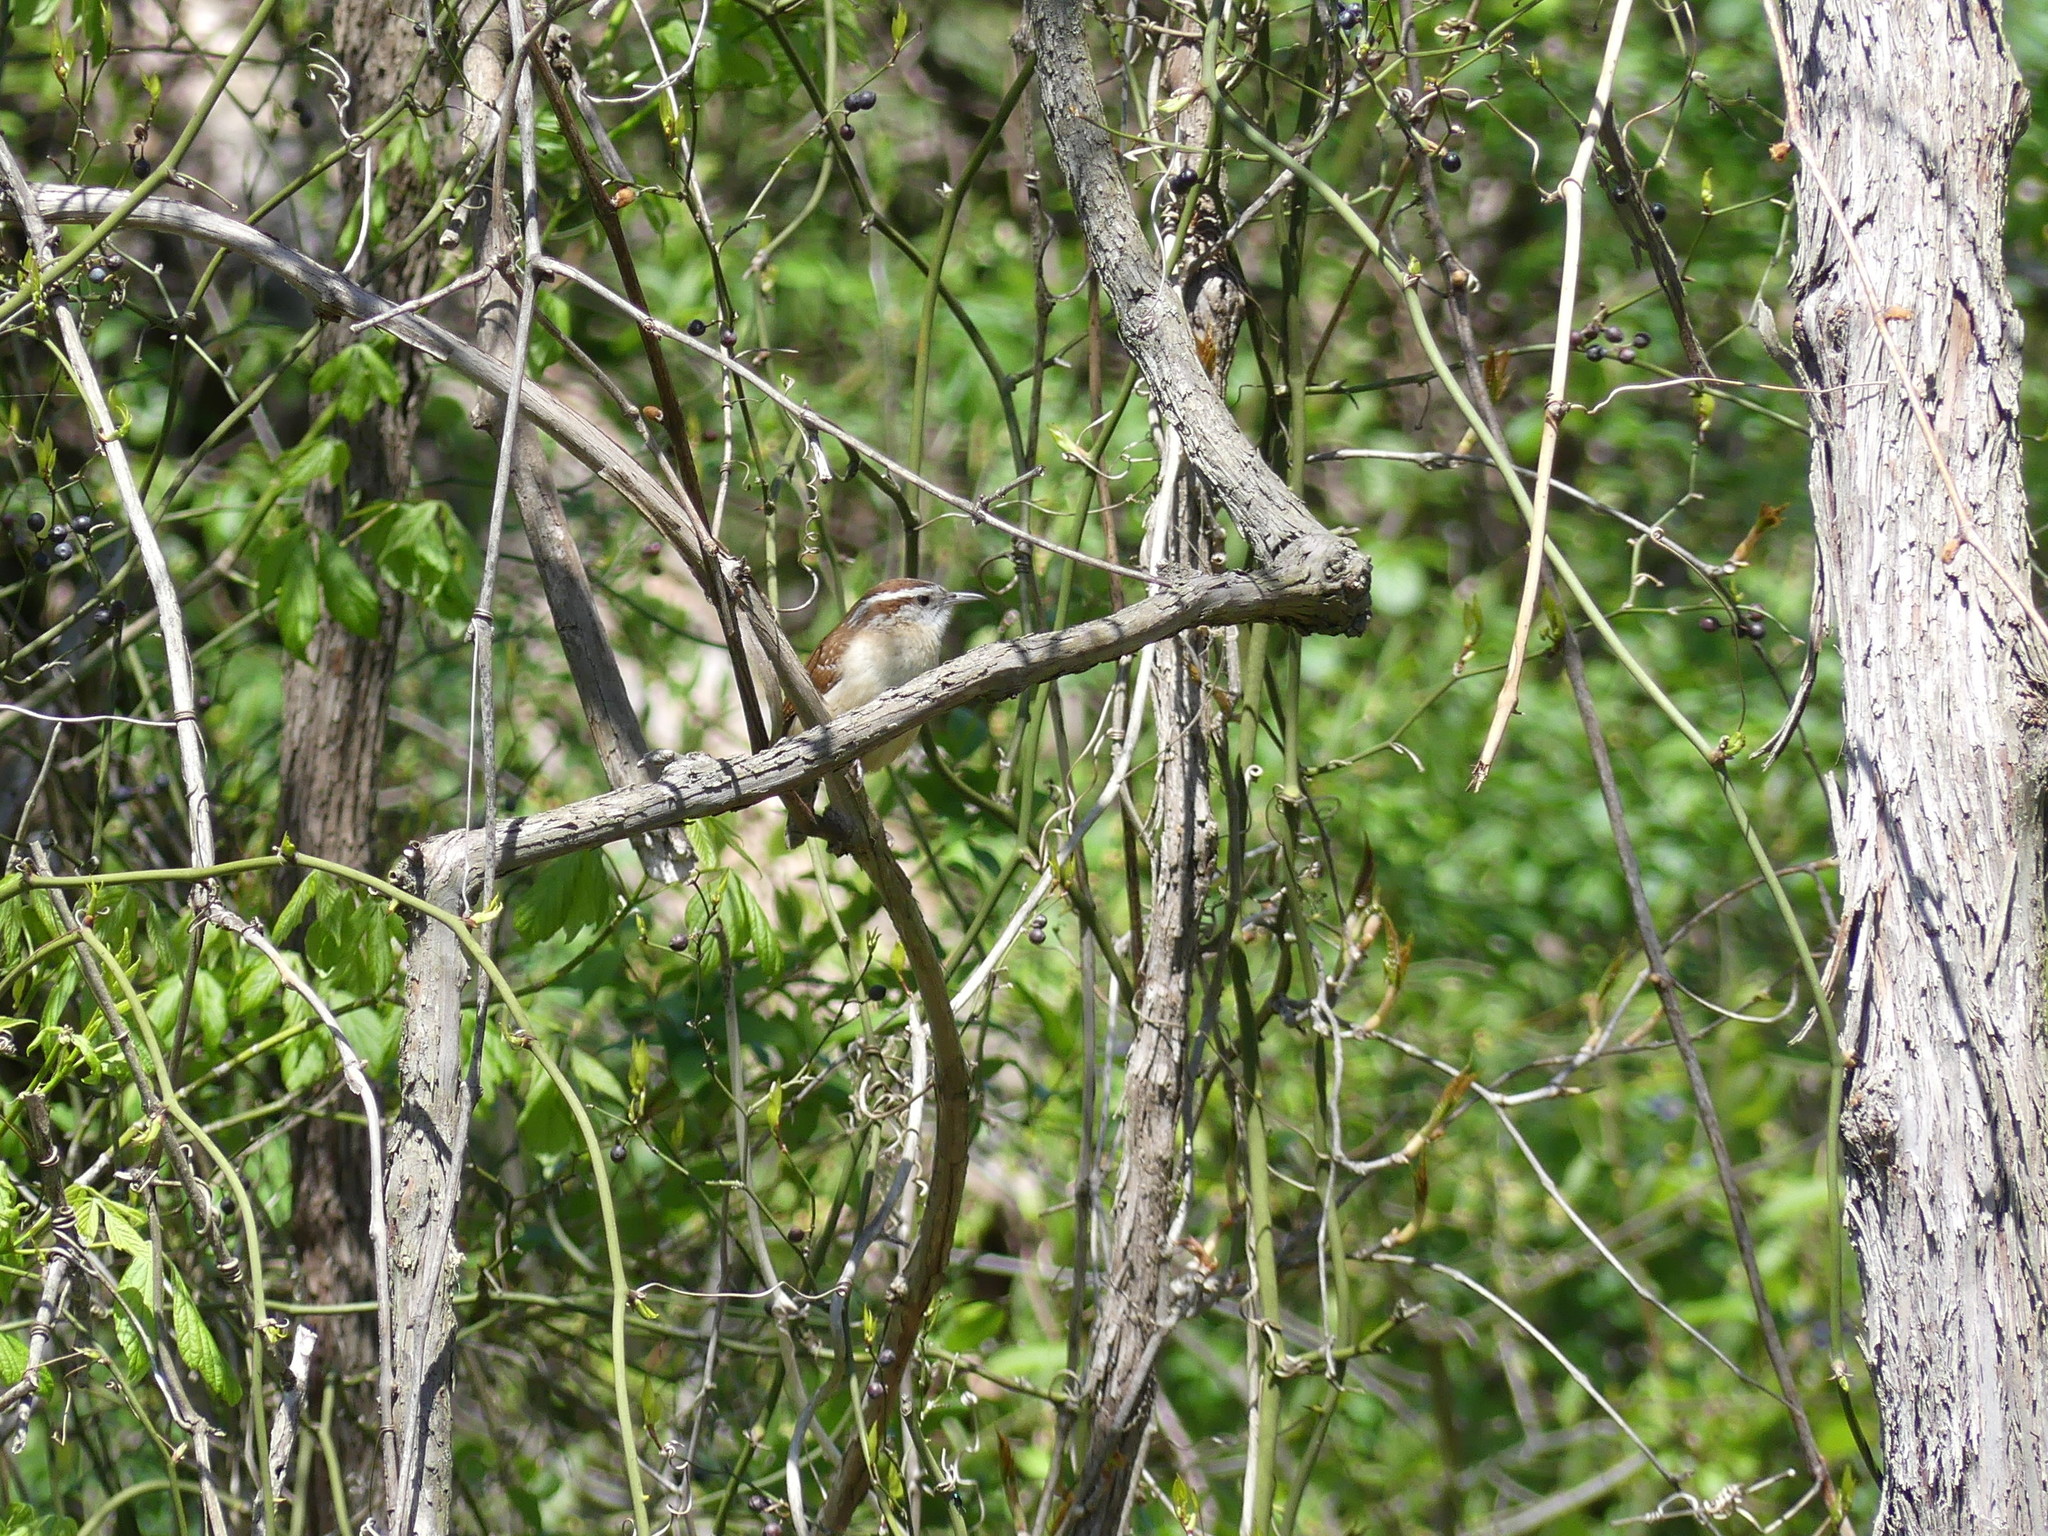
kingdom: Animalia
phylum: Chordata
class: Aves
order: Passeriformes
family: Troglodytidae
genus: Thryothorus
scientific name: Thryothorus ludovicianus
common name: Carolina wren
